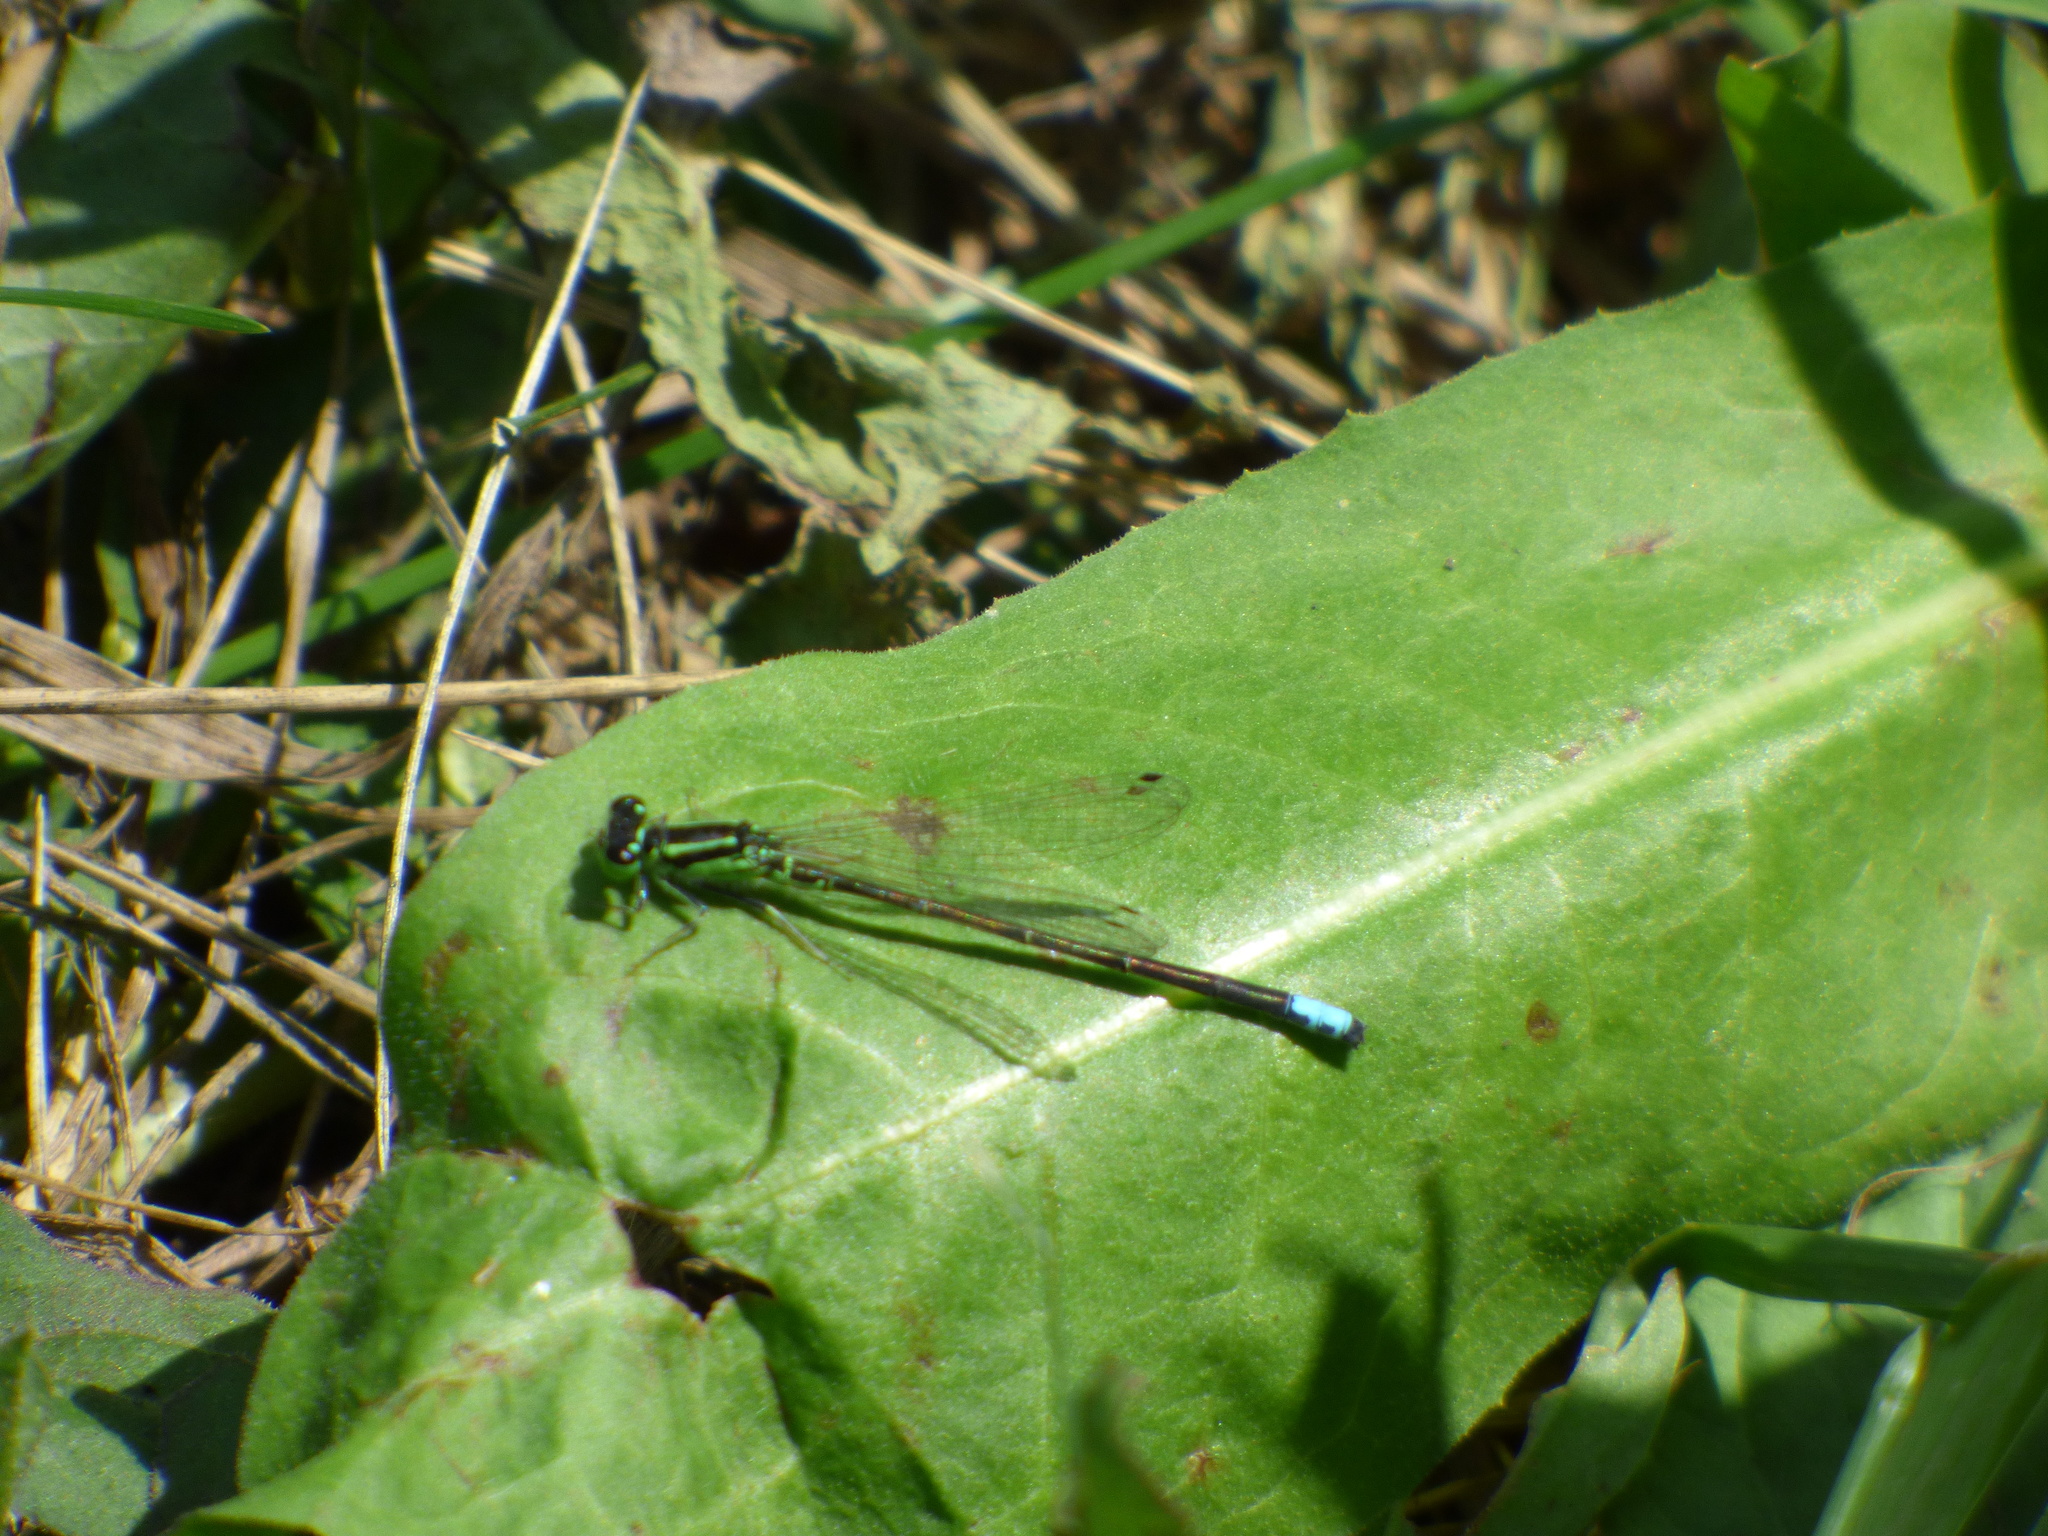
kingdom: Animalia
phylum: Arthropoda
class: Insecta
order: Odonata
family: Coenagrionidae
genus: Ischnura
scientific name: Ischnura verticalis
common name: Eastern forktail
